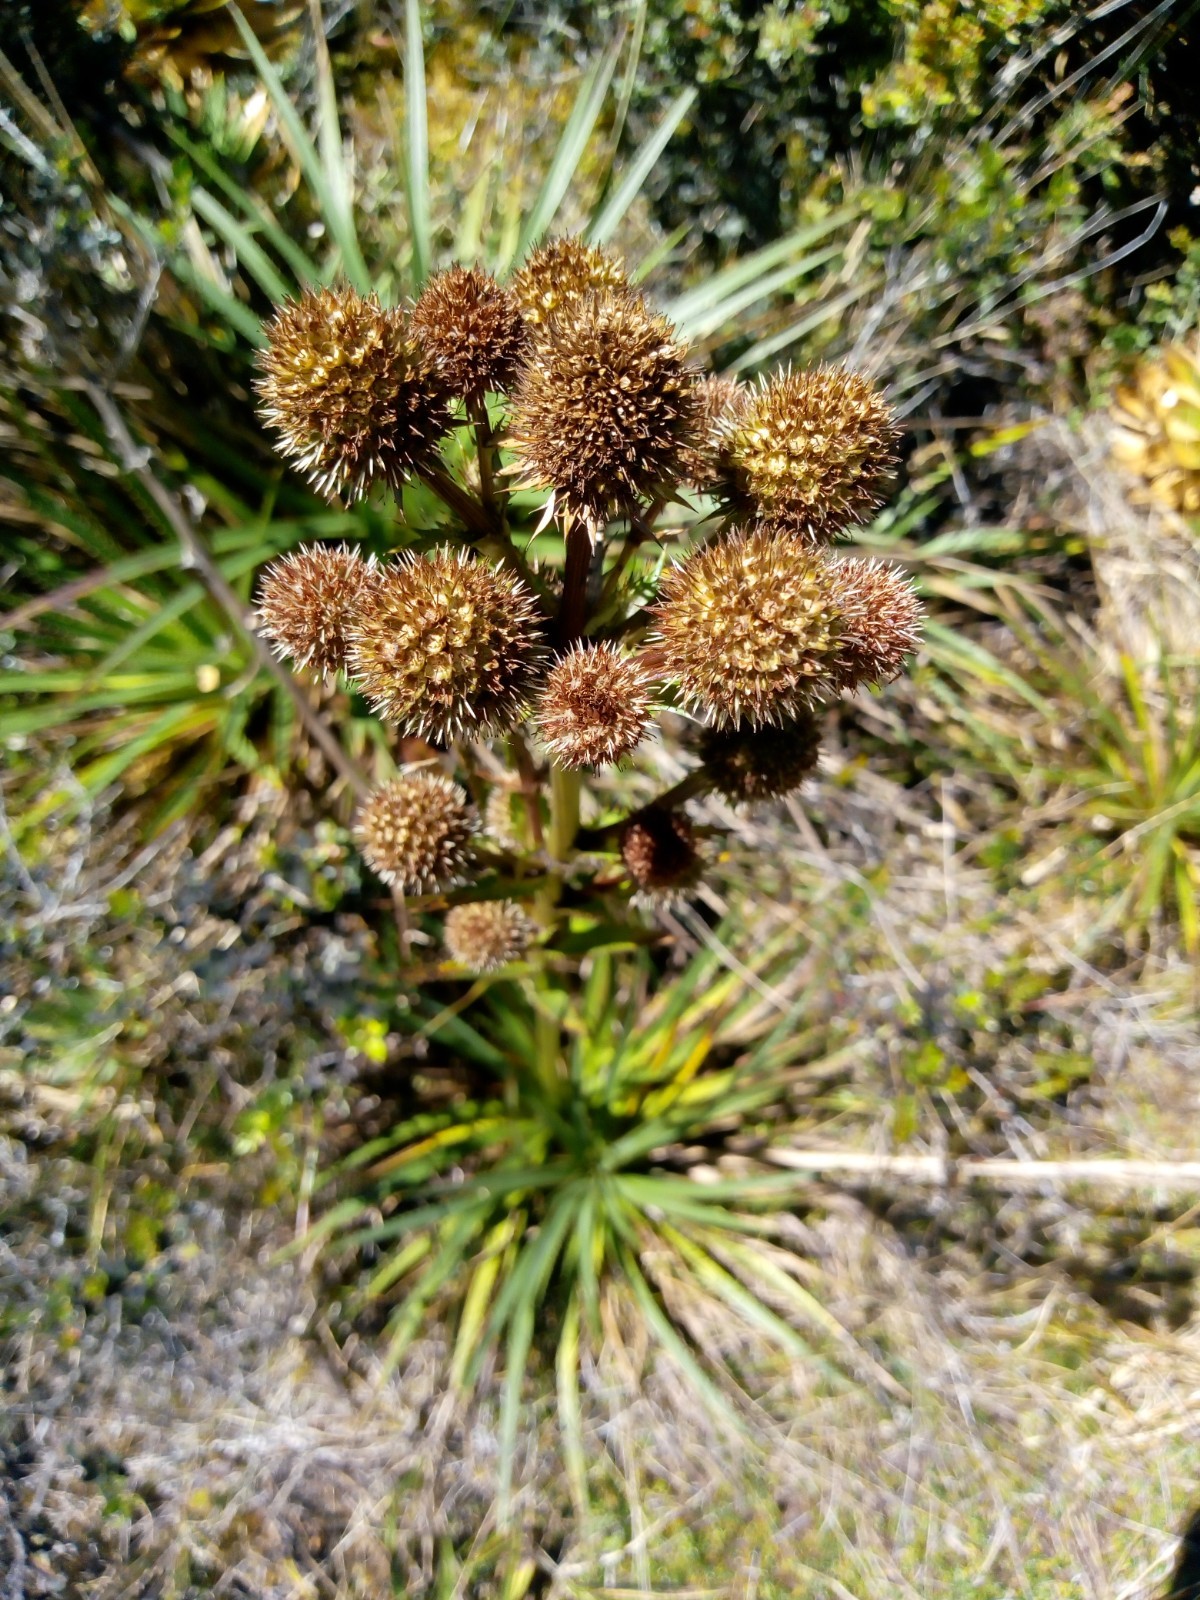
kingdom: Plantae
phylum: Tracheophyta
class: Magnoliopsida
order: Apiales
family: Apiaceae
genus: Eryngium
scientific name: Eryngium humboldtii
